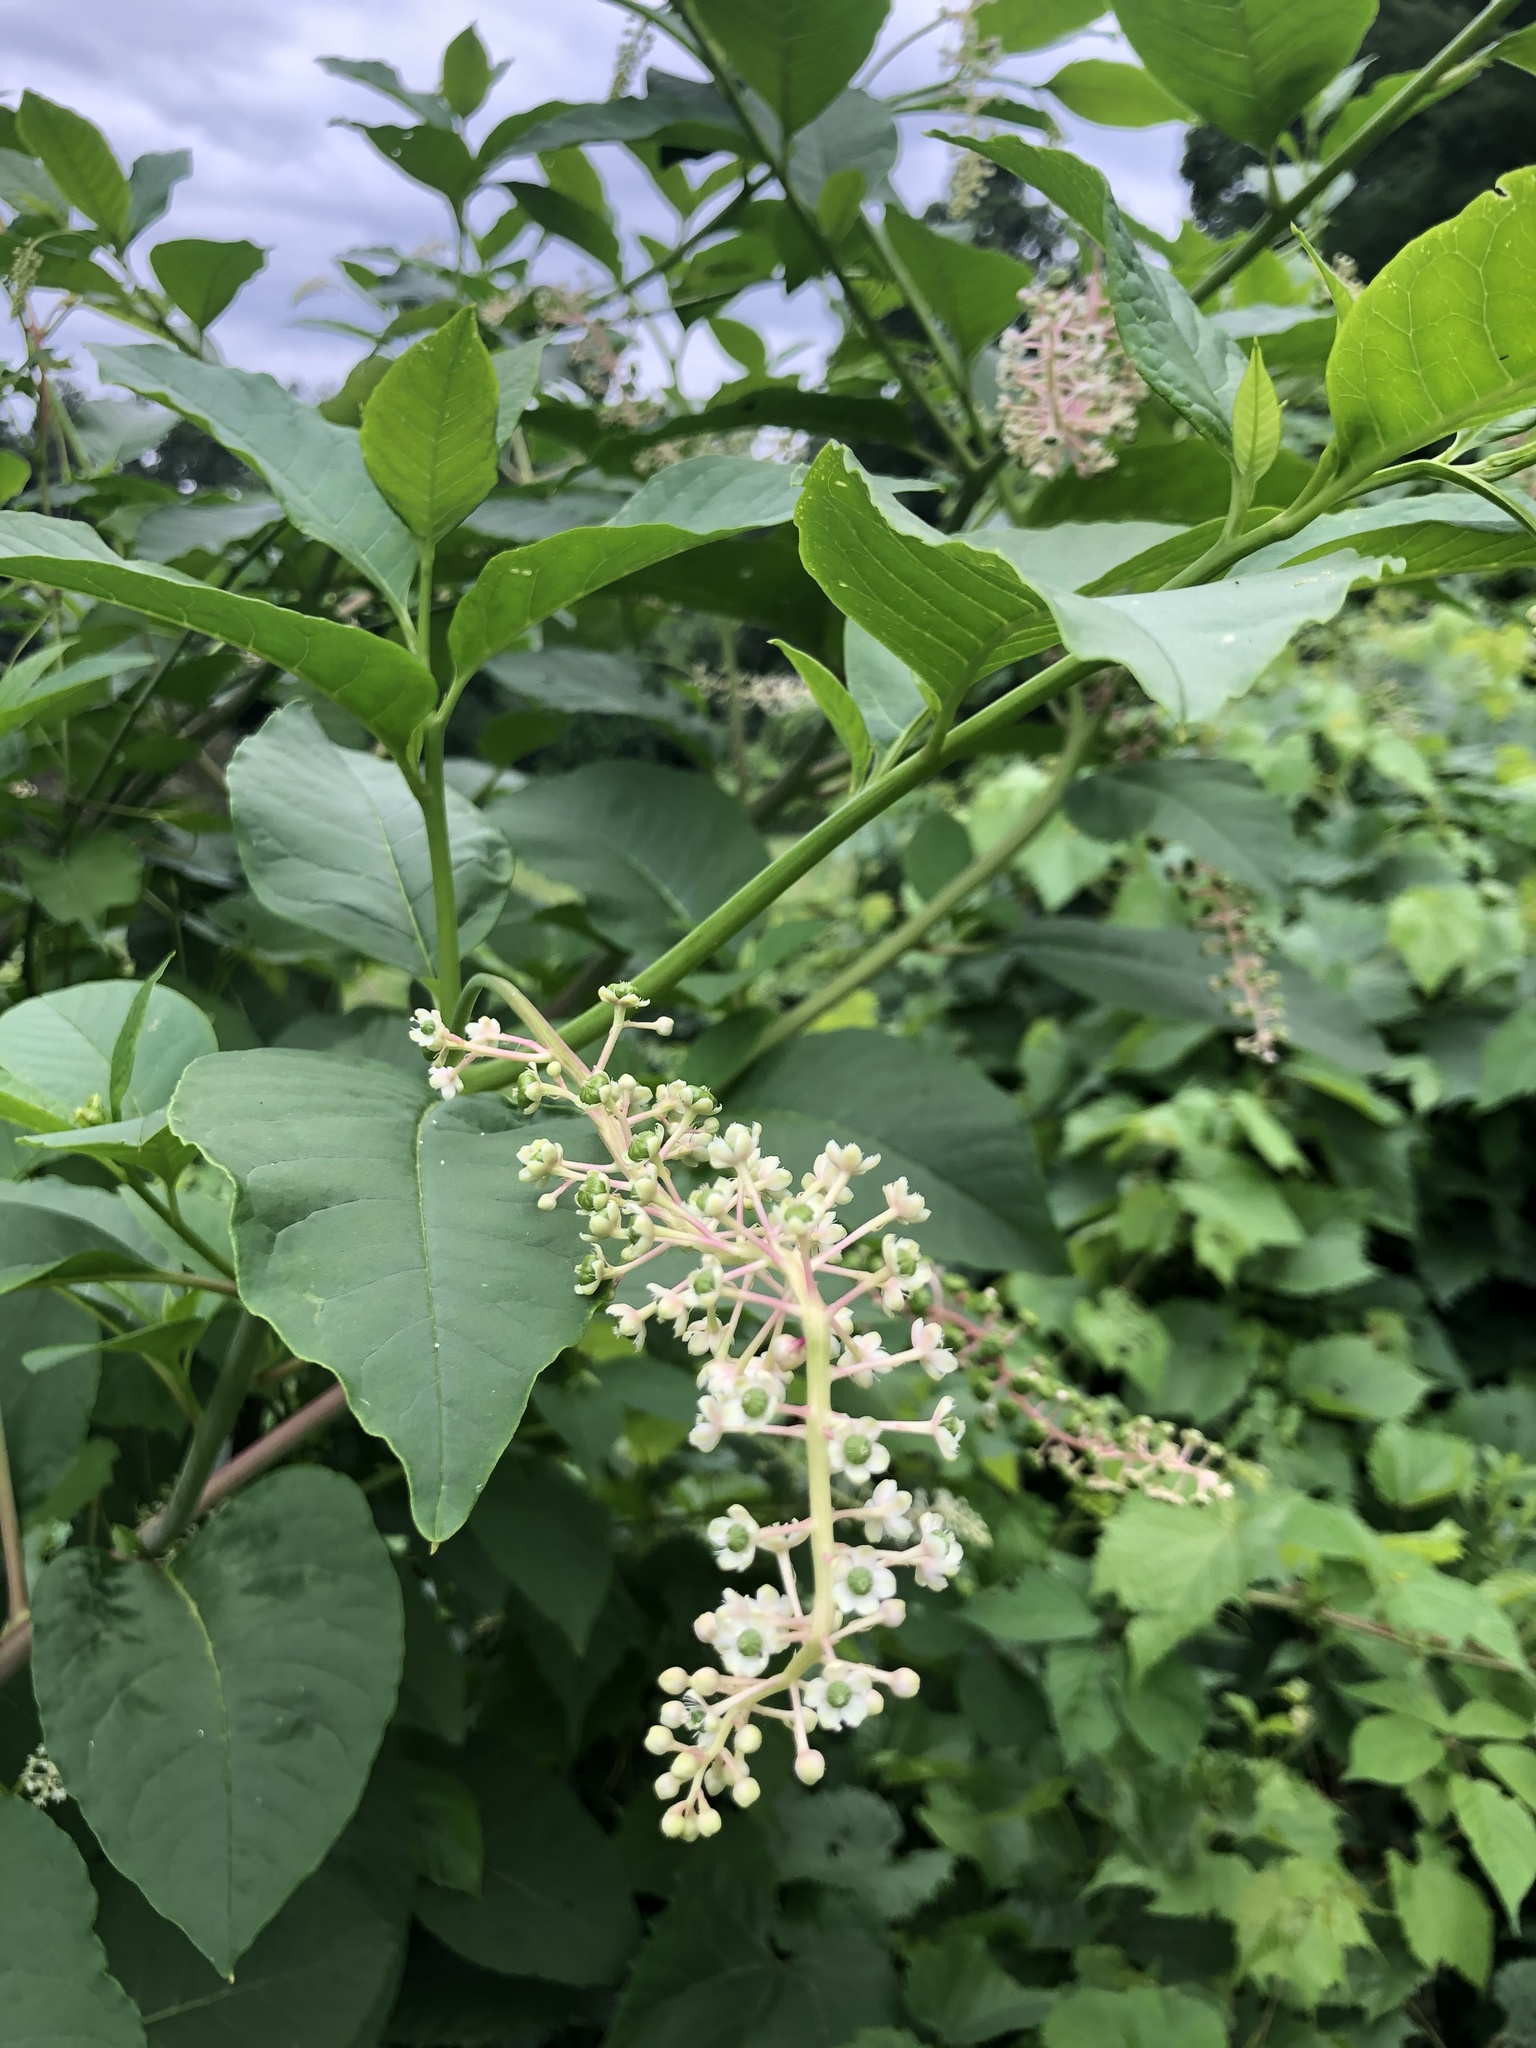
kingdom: Plantae
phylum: Tracheophyta
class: Magnoliopsida
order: Caryophyllales
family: Phytolaccaceae
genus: Phytolacca
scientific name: Phytolacca americana
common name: American pokeweed
